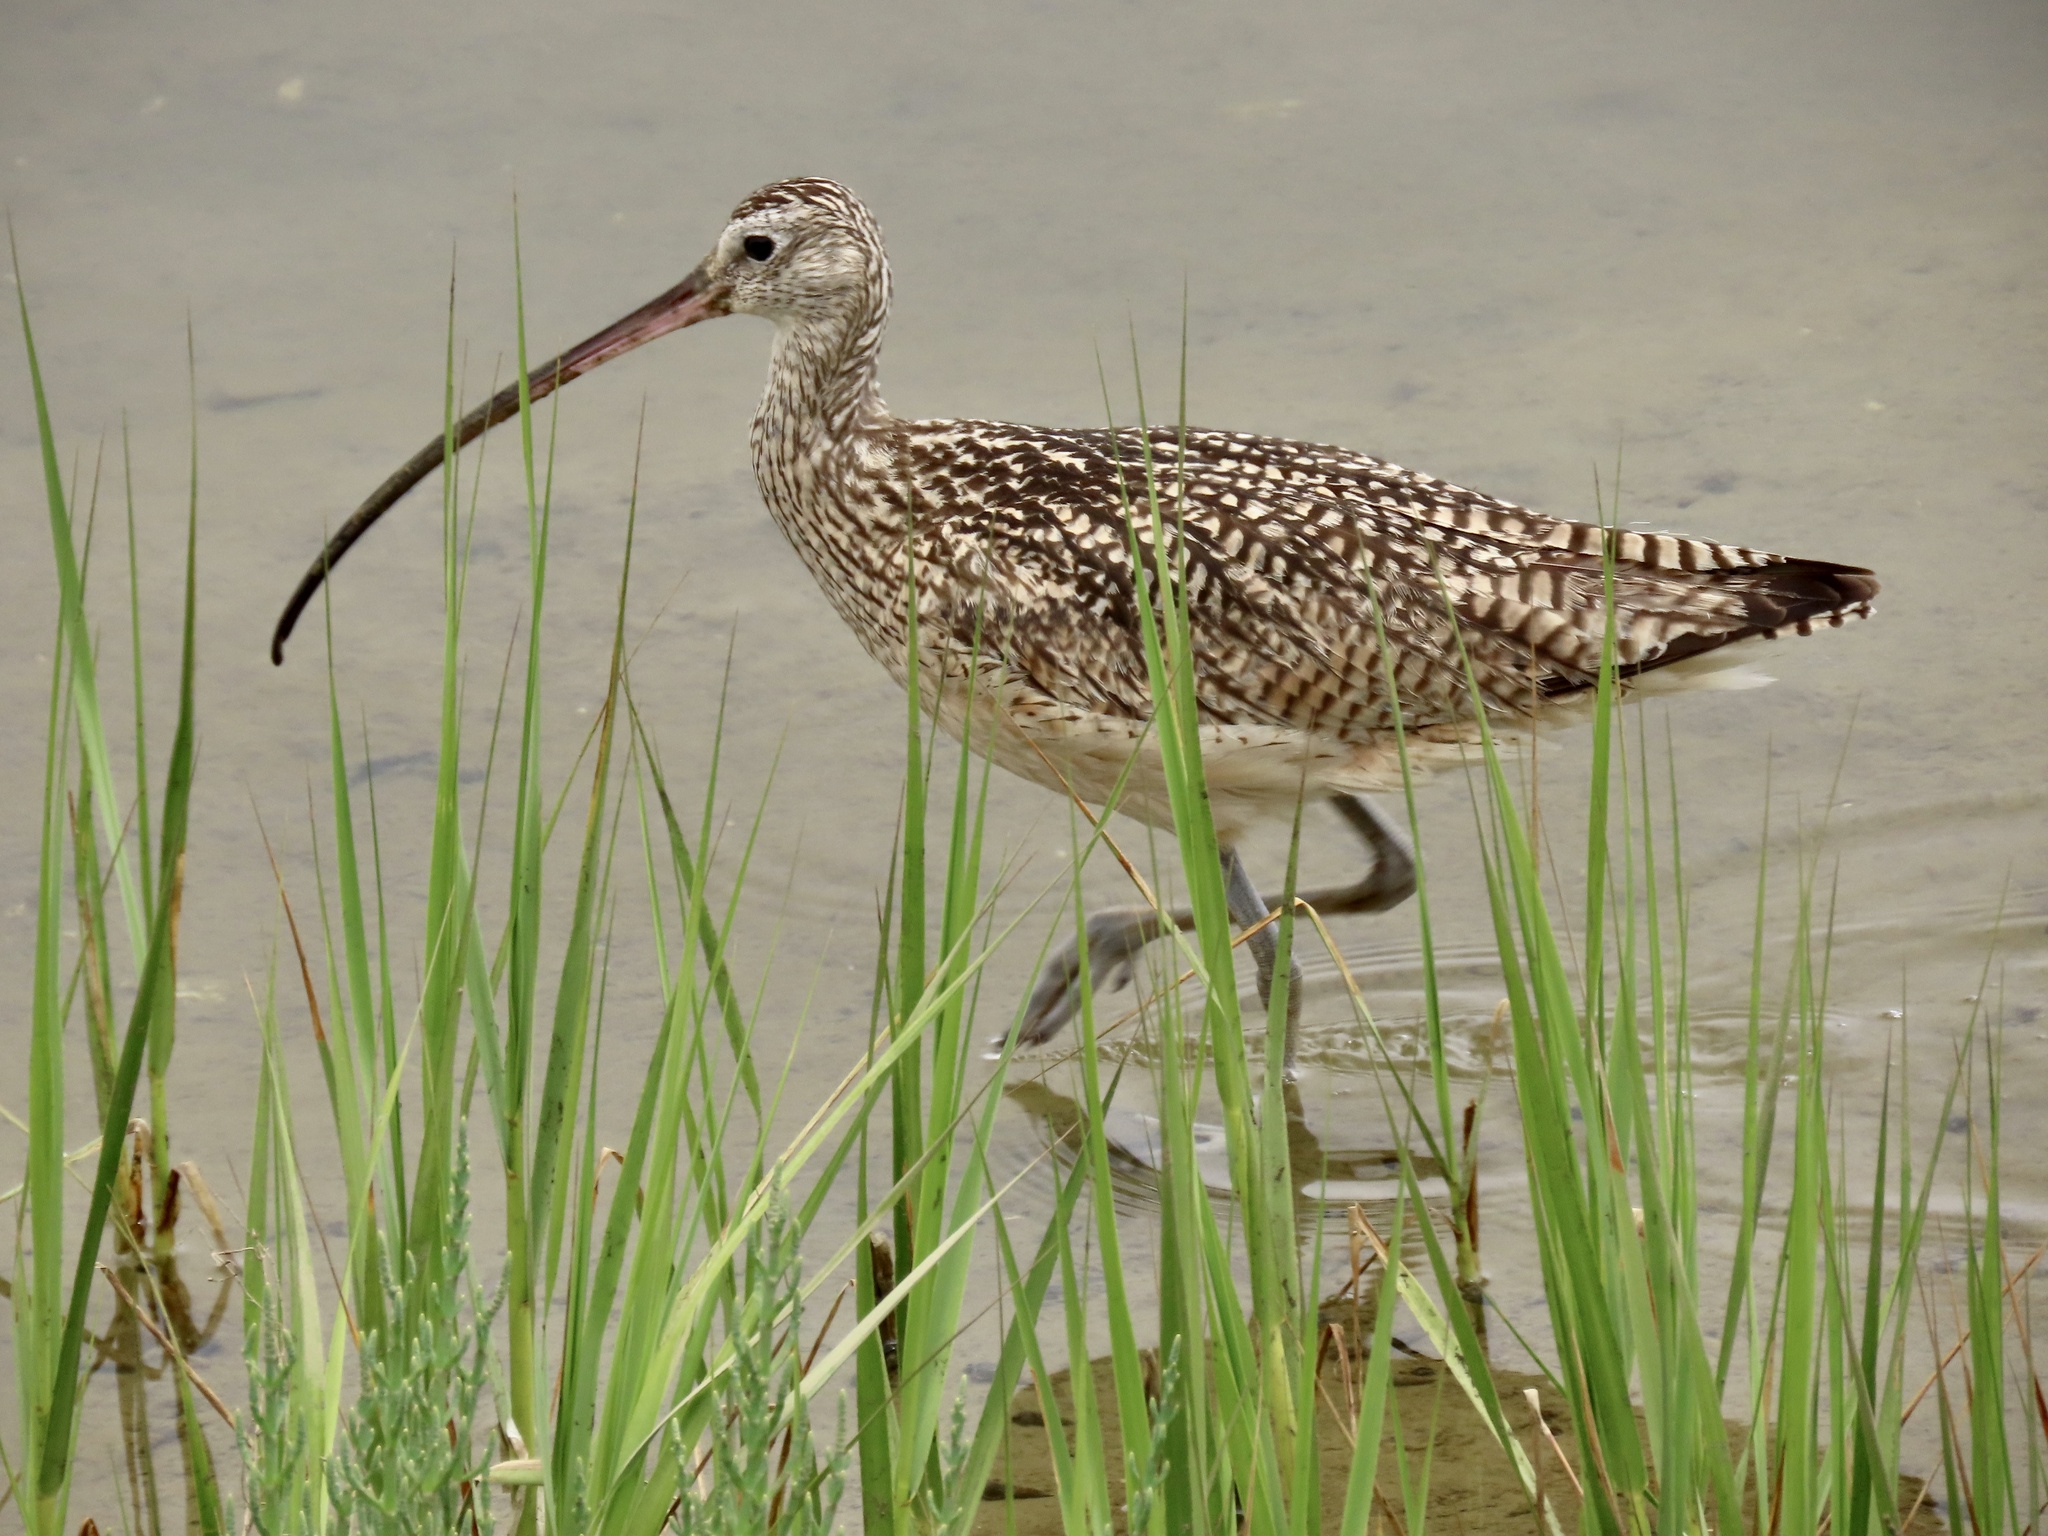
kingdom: Animalia
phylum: Chordata
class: Aves
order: Charadriiformes
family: Scolopacidae
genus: Numenius
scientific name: Numenius americanus
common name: Long-billed curlew
